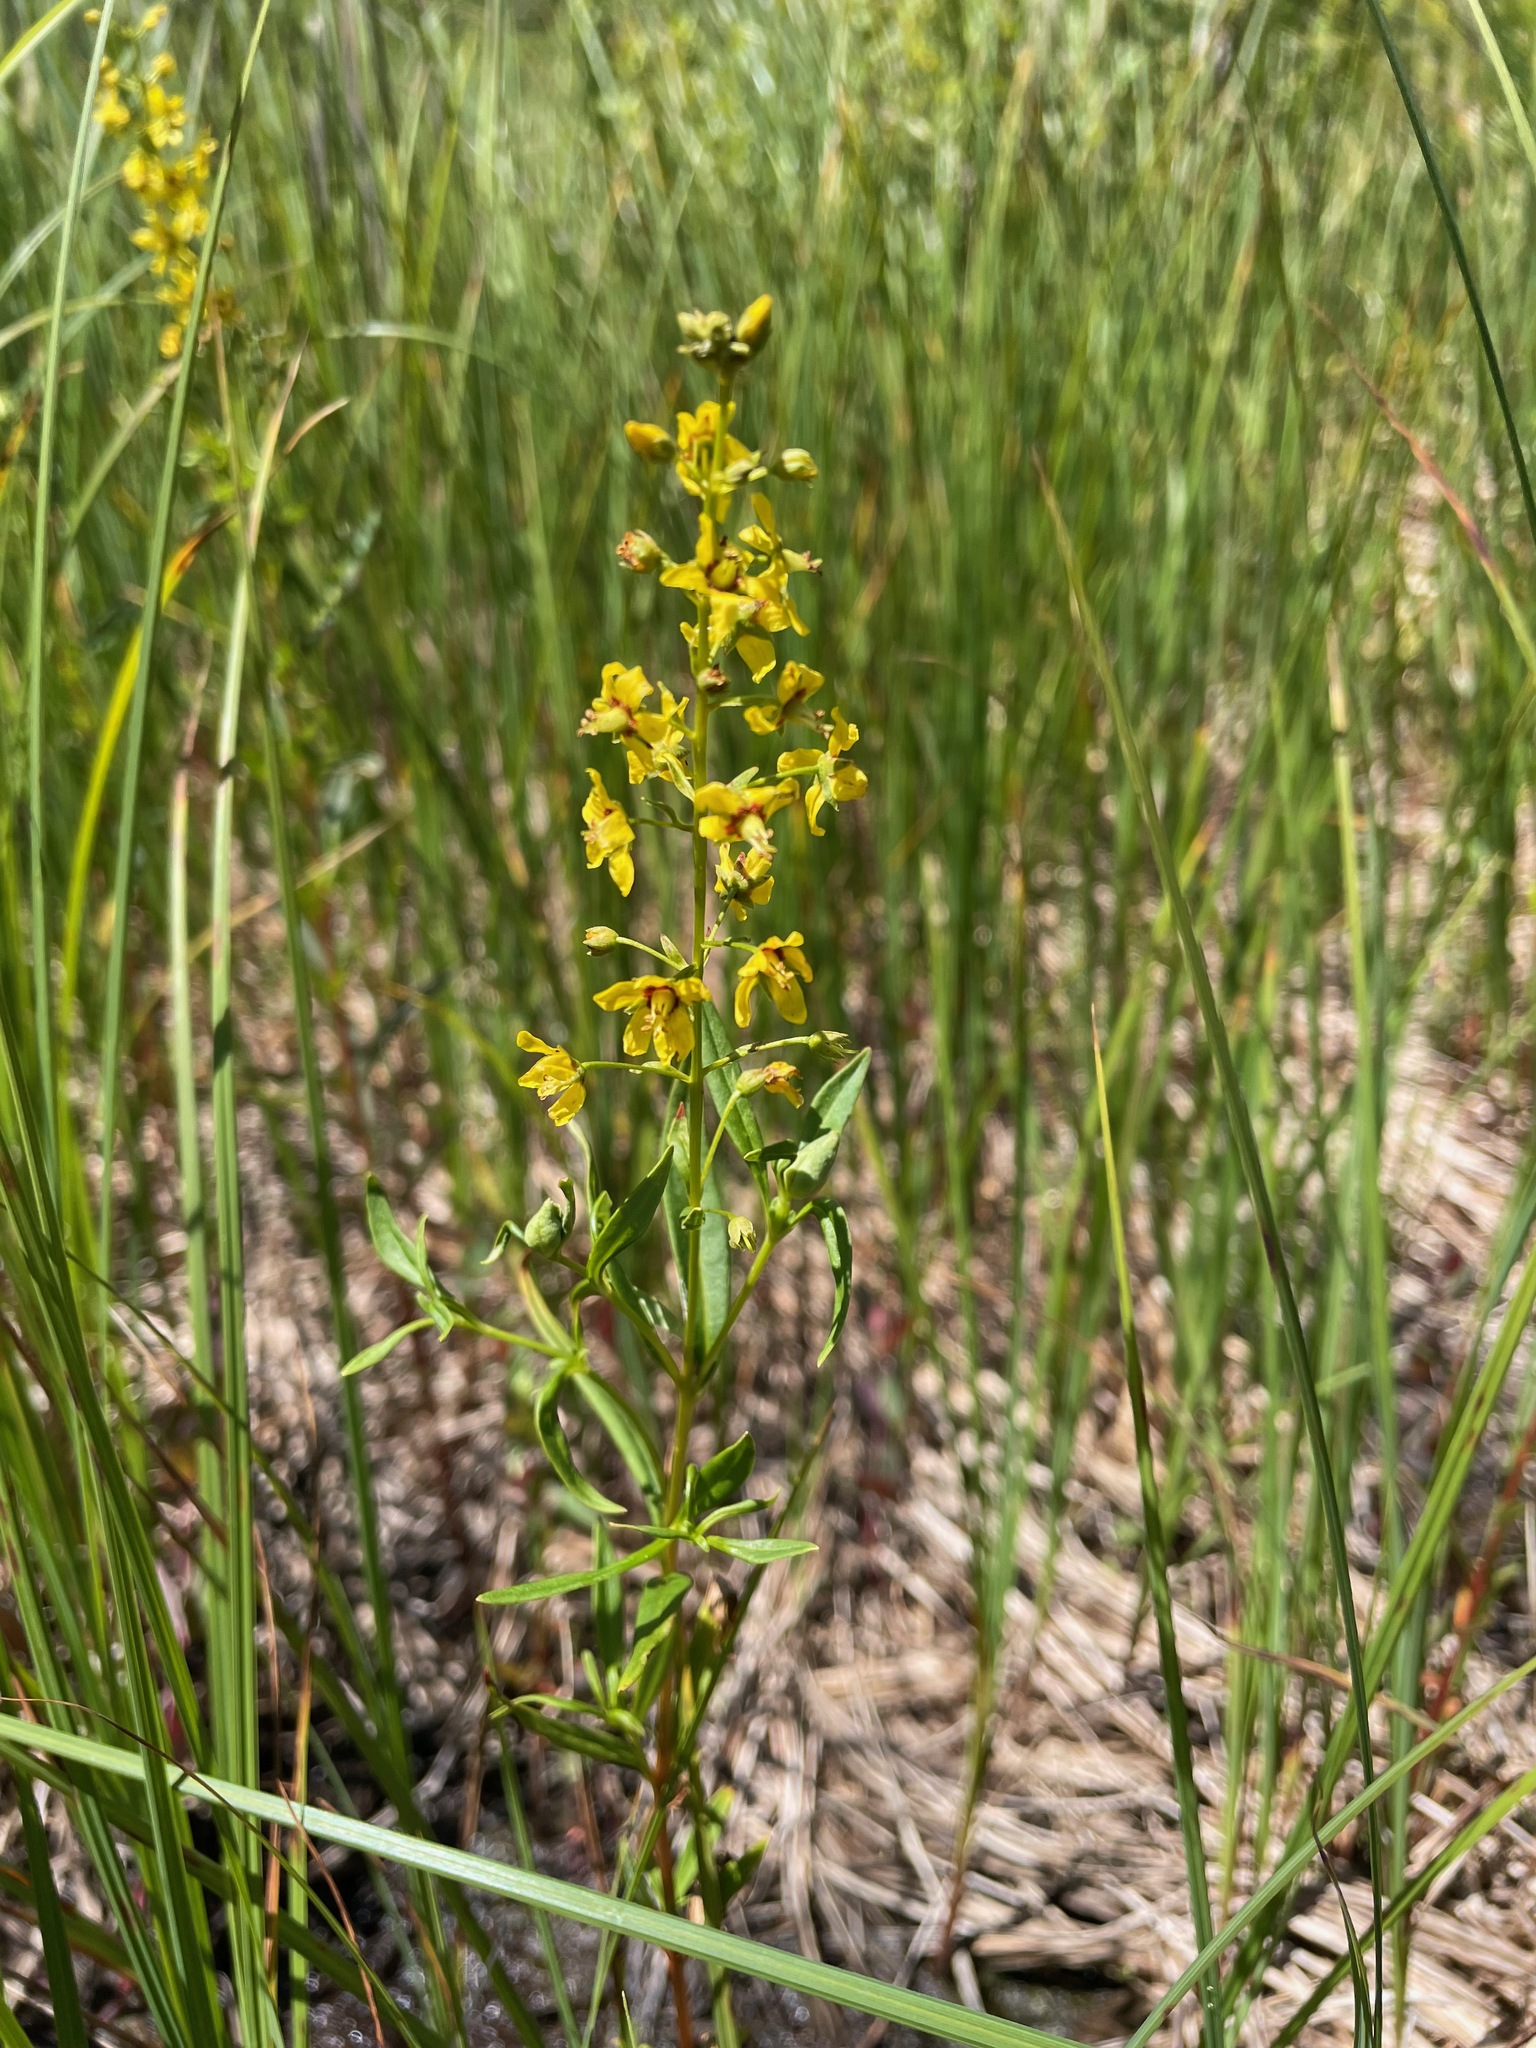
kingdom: Plantae
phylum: Tracheophyta
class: Magnoliopsida
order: Ericales
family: Primulaceae
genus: Lysimachia
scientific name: Lysimachia terrestris
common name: Lake loosestrife
